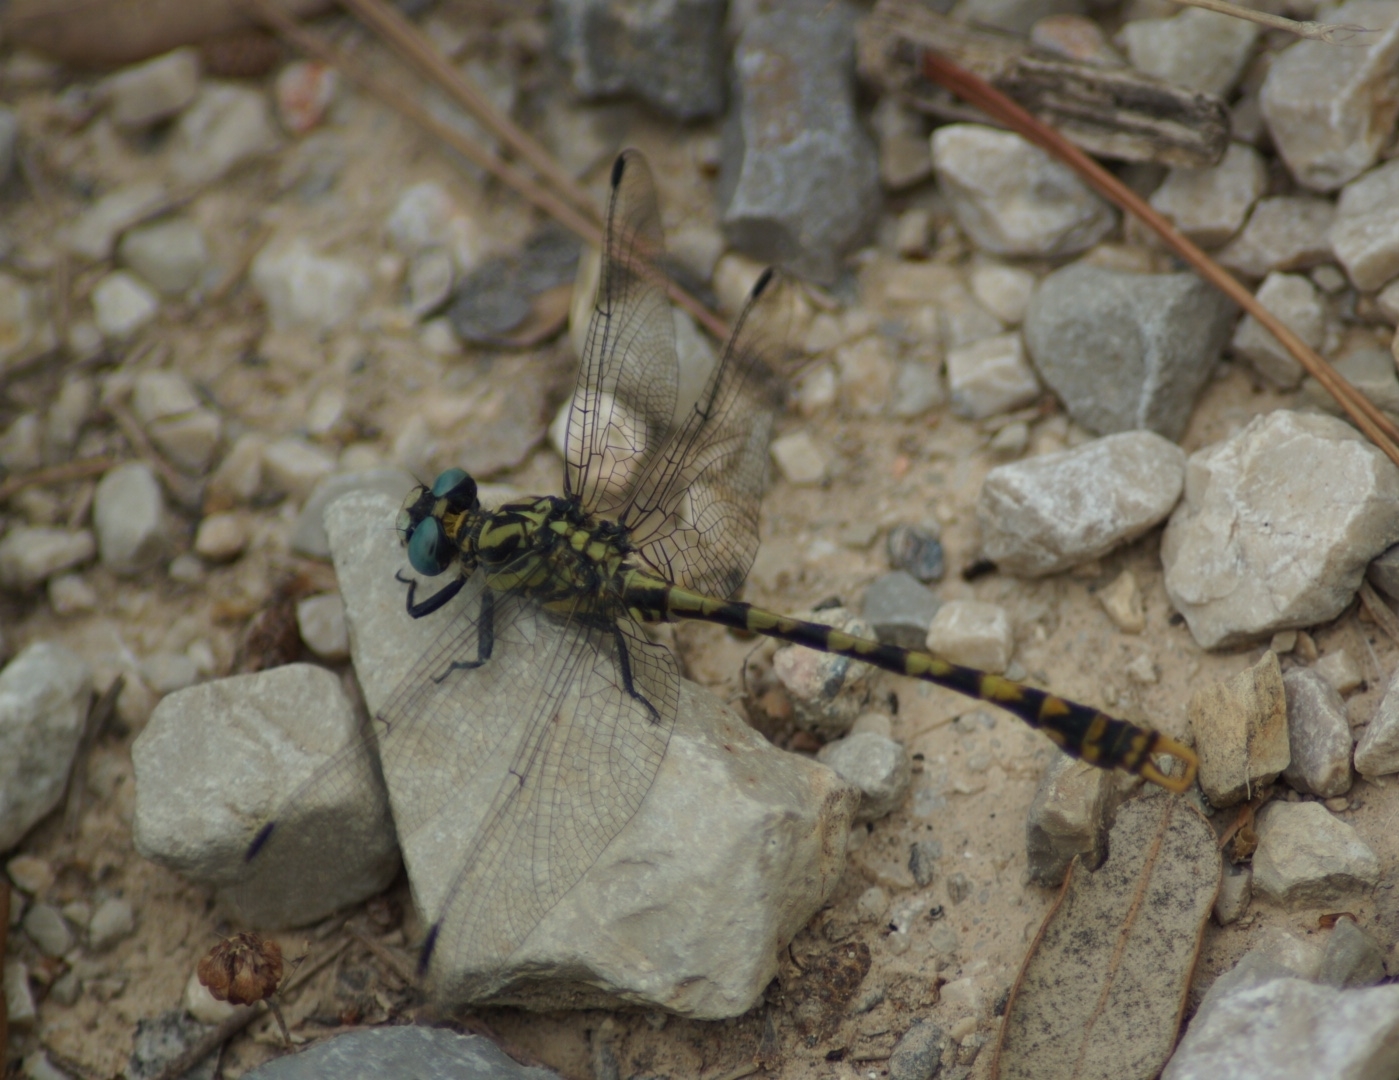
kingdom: Animalia
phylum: Arthropoda
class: Insecta
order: Odonata
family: Gomphidae
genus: Onychogomphus
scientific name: Onychogomphus uncatus
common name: Large pincertail
